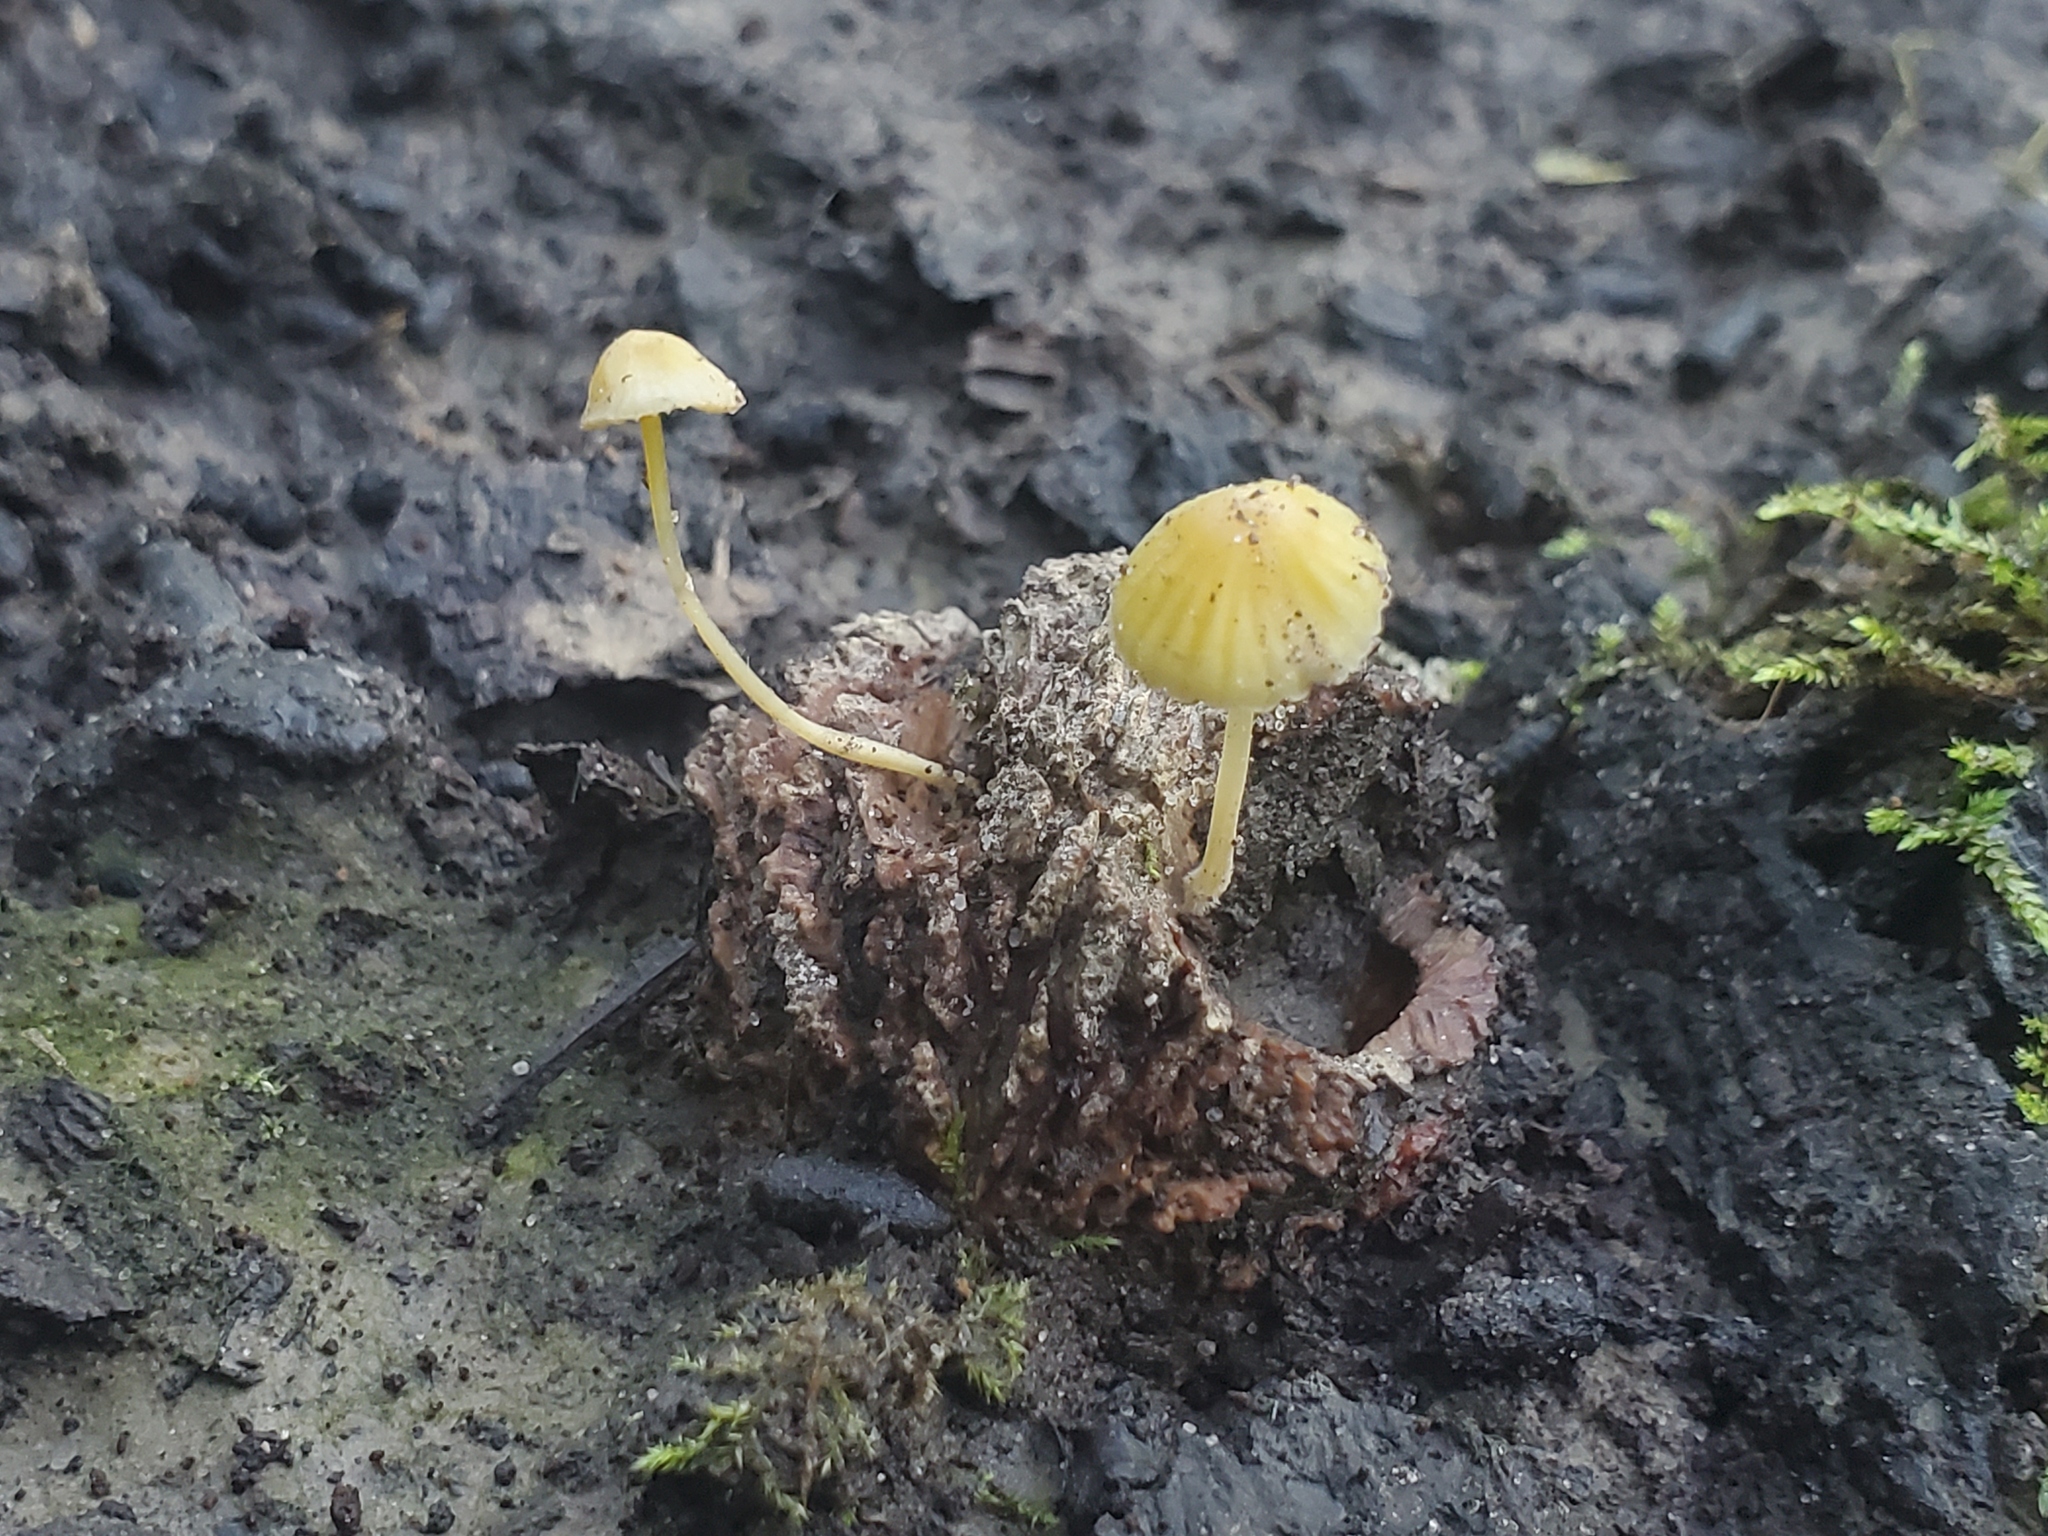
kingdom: Fungi
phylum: Basidiomycota
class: Agaricomycetes
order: Agaricales
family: Mycenaceae
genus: Mycena
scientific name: Mycena crocea
